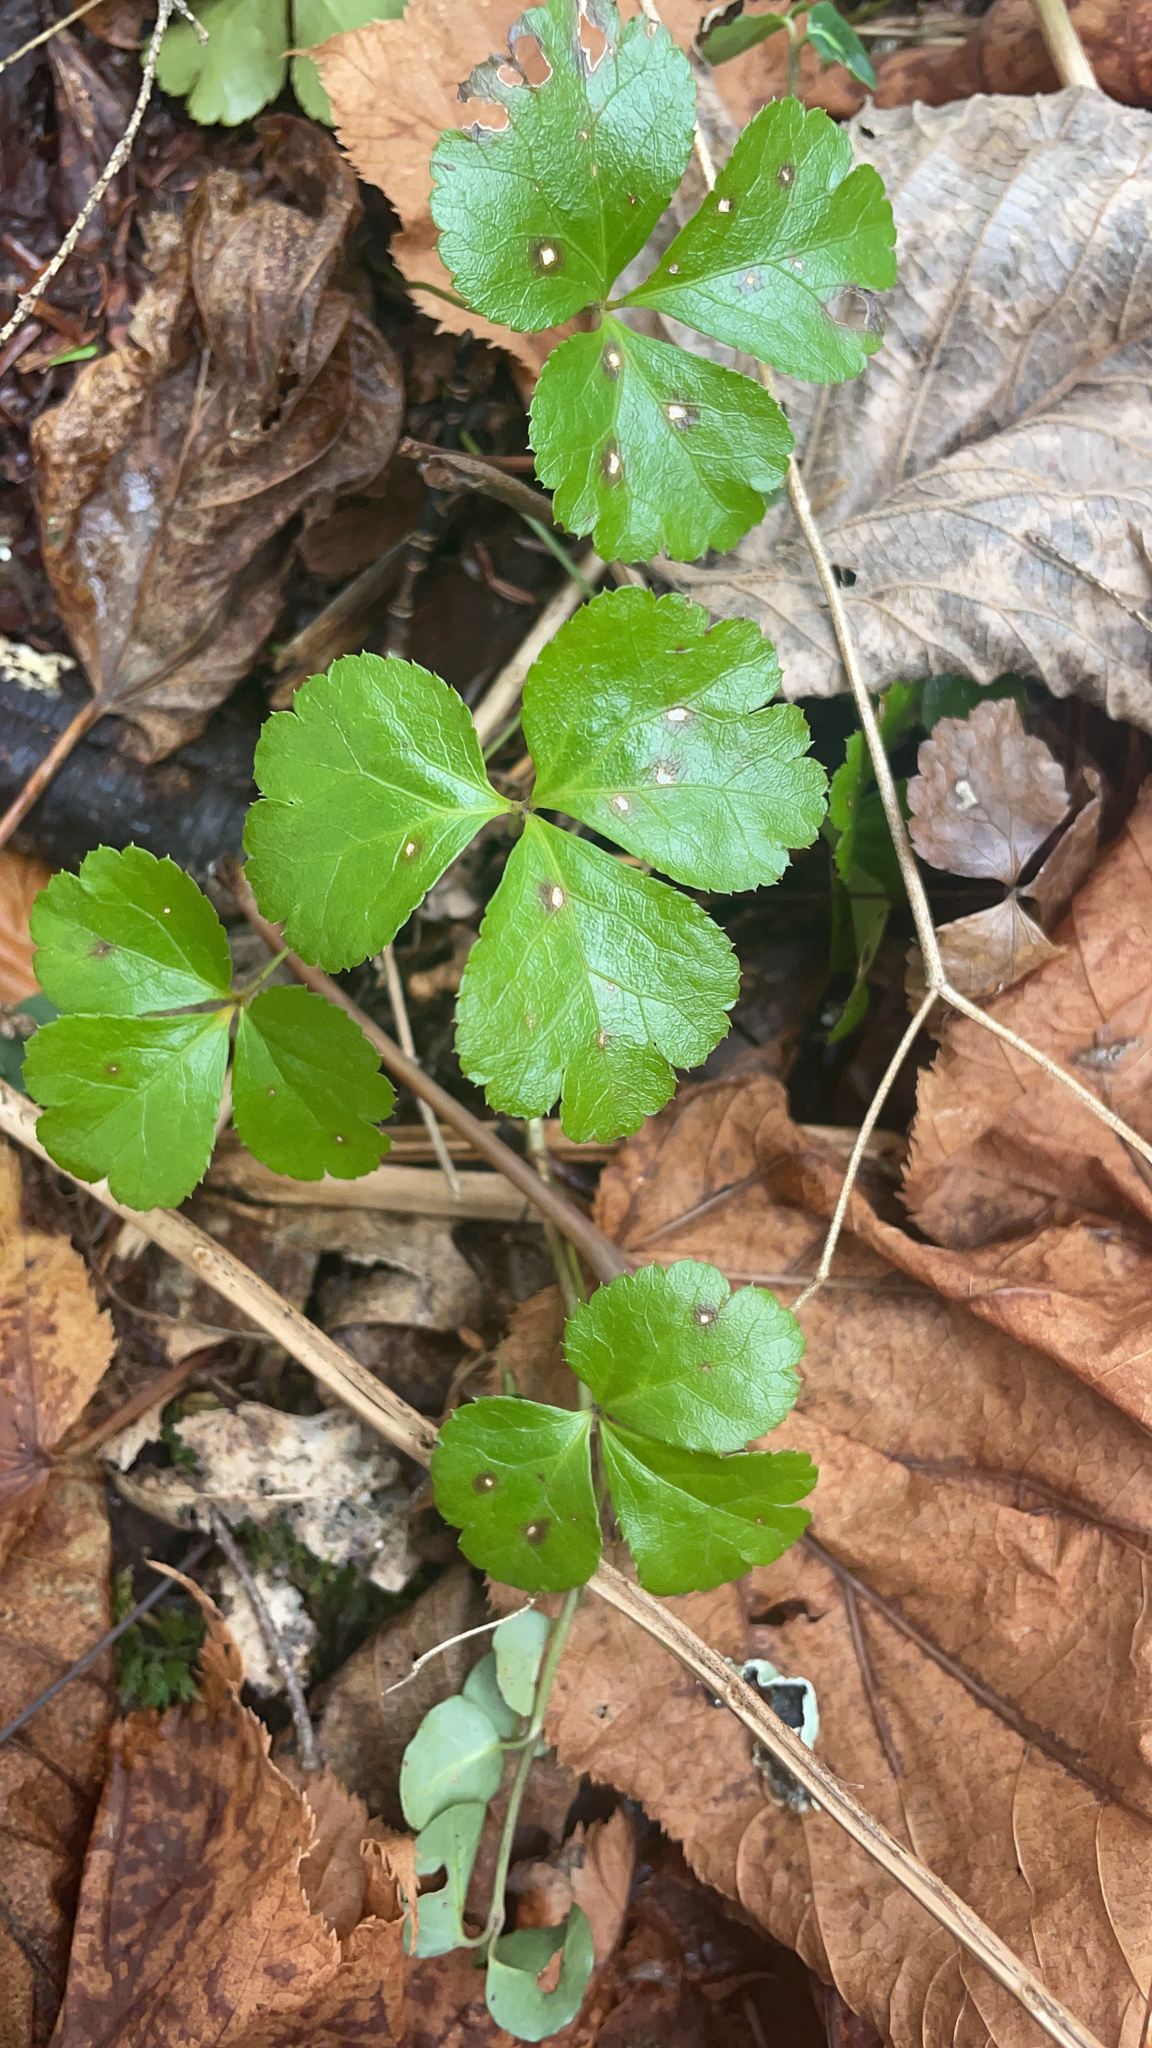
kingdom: Plantae
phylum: Tracheophyta
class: Magnoliopsida
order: Ranunculales
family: Ranunculaceae
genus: Coptis
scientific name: Coptis trifolia
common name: Canker-root
